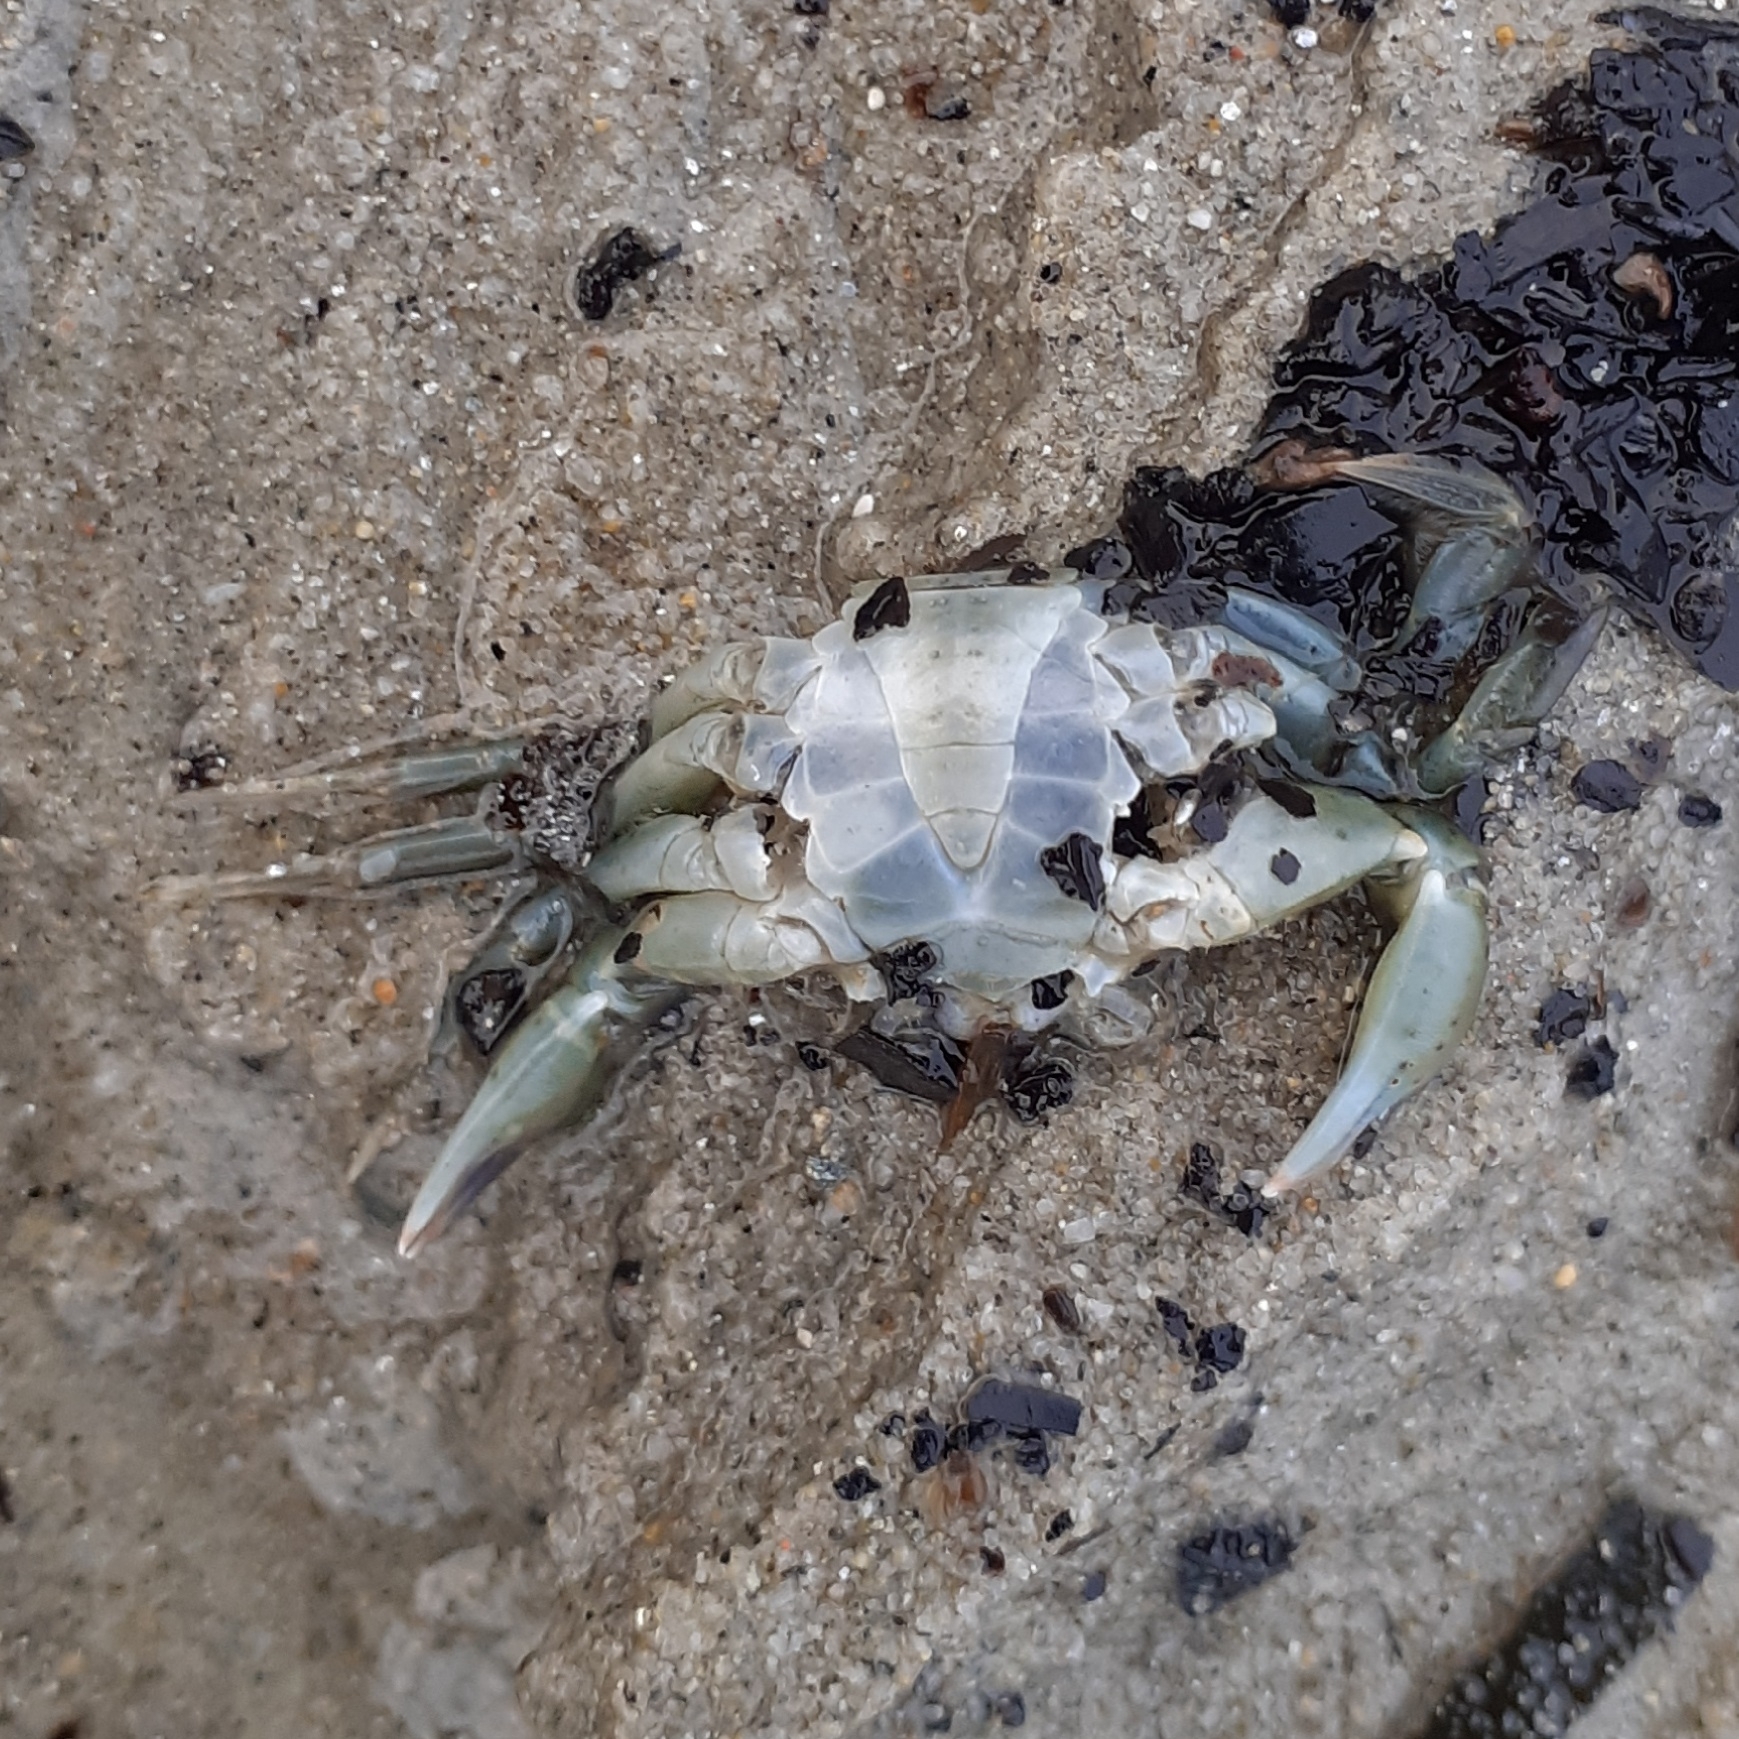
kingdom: Animalia
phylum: Arthropoda
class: Malacostraca
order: Decapoda
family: Carcinidae
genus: Carcinus
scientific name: Carcinus maenas
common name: European green crab
